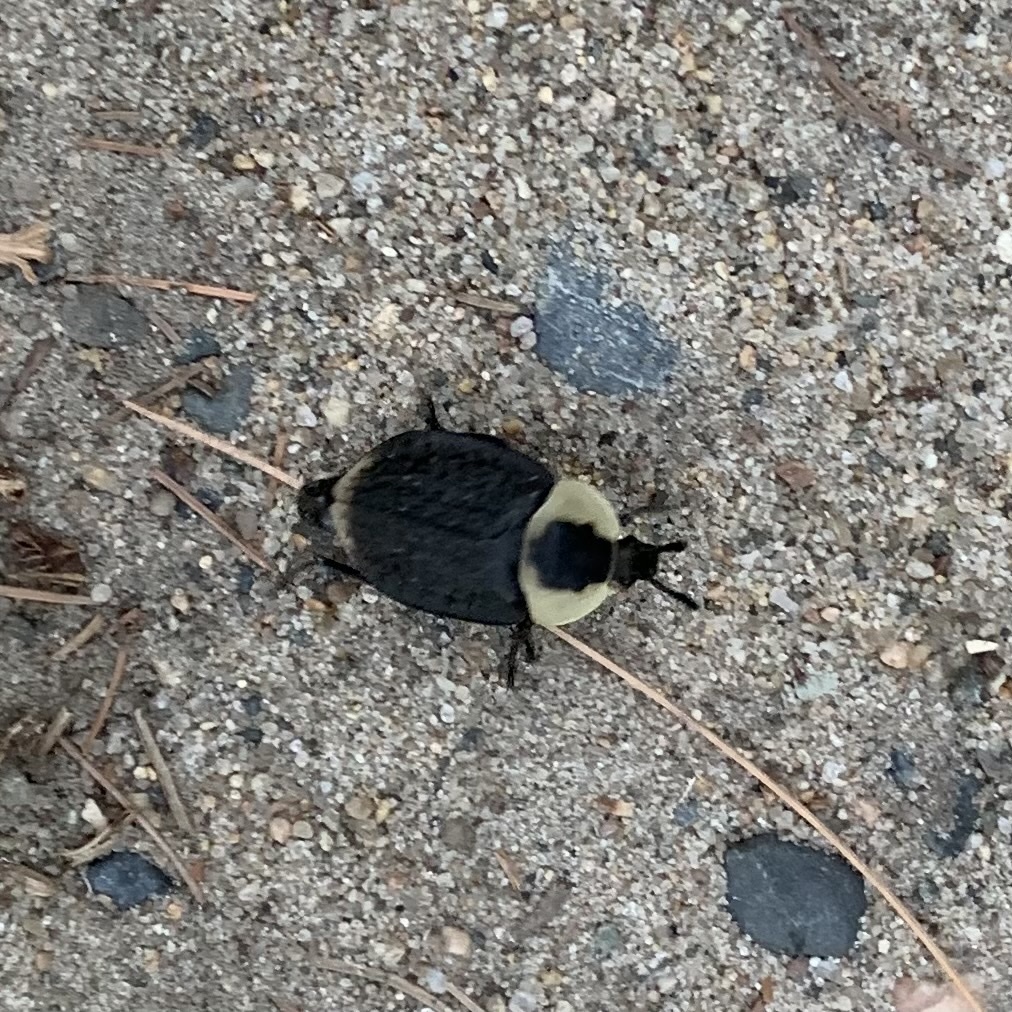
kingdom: Animalia
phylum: Arthropoda
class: Insecta
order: Coleoptera
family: Staphylinidae
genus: Necrophila
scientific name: Necrophila americana
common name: American carrion beetle
